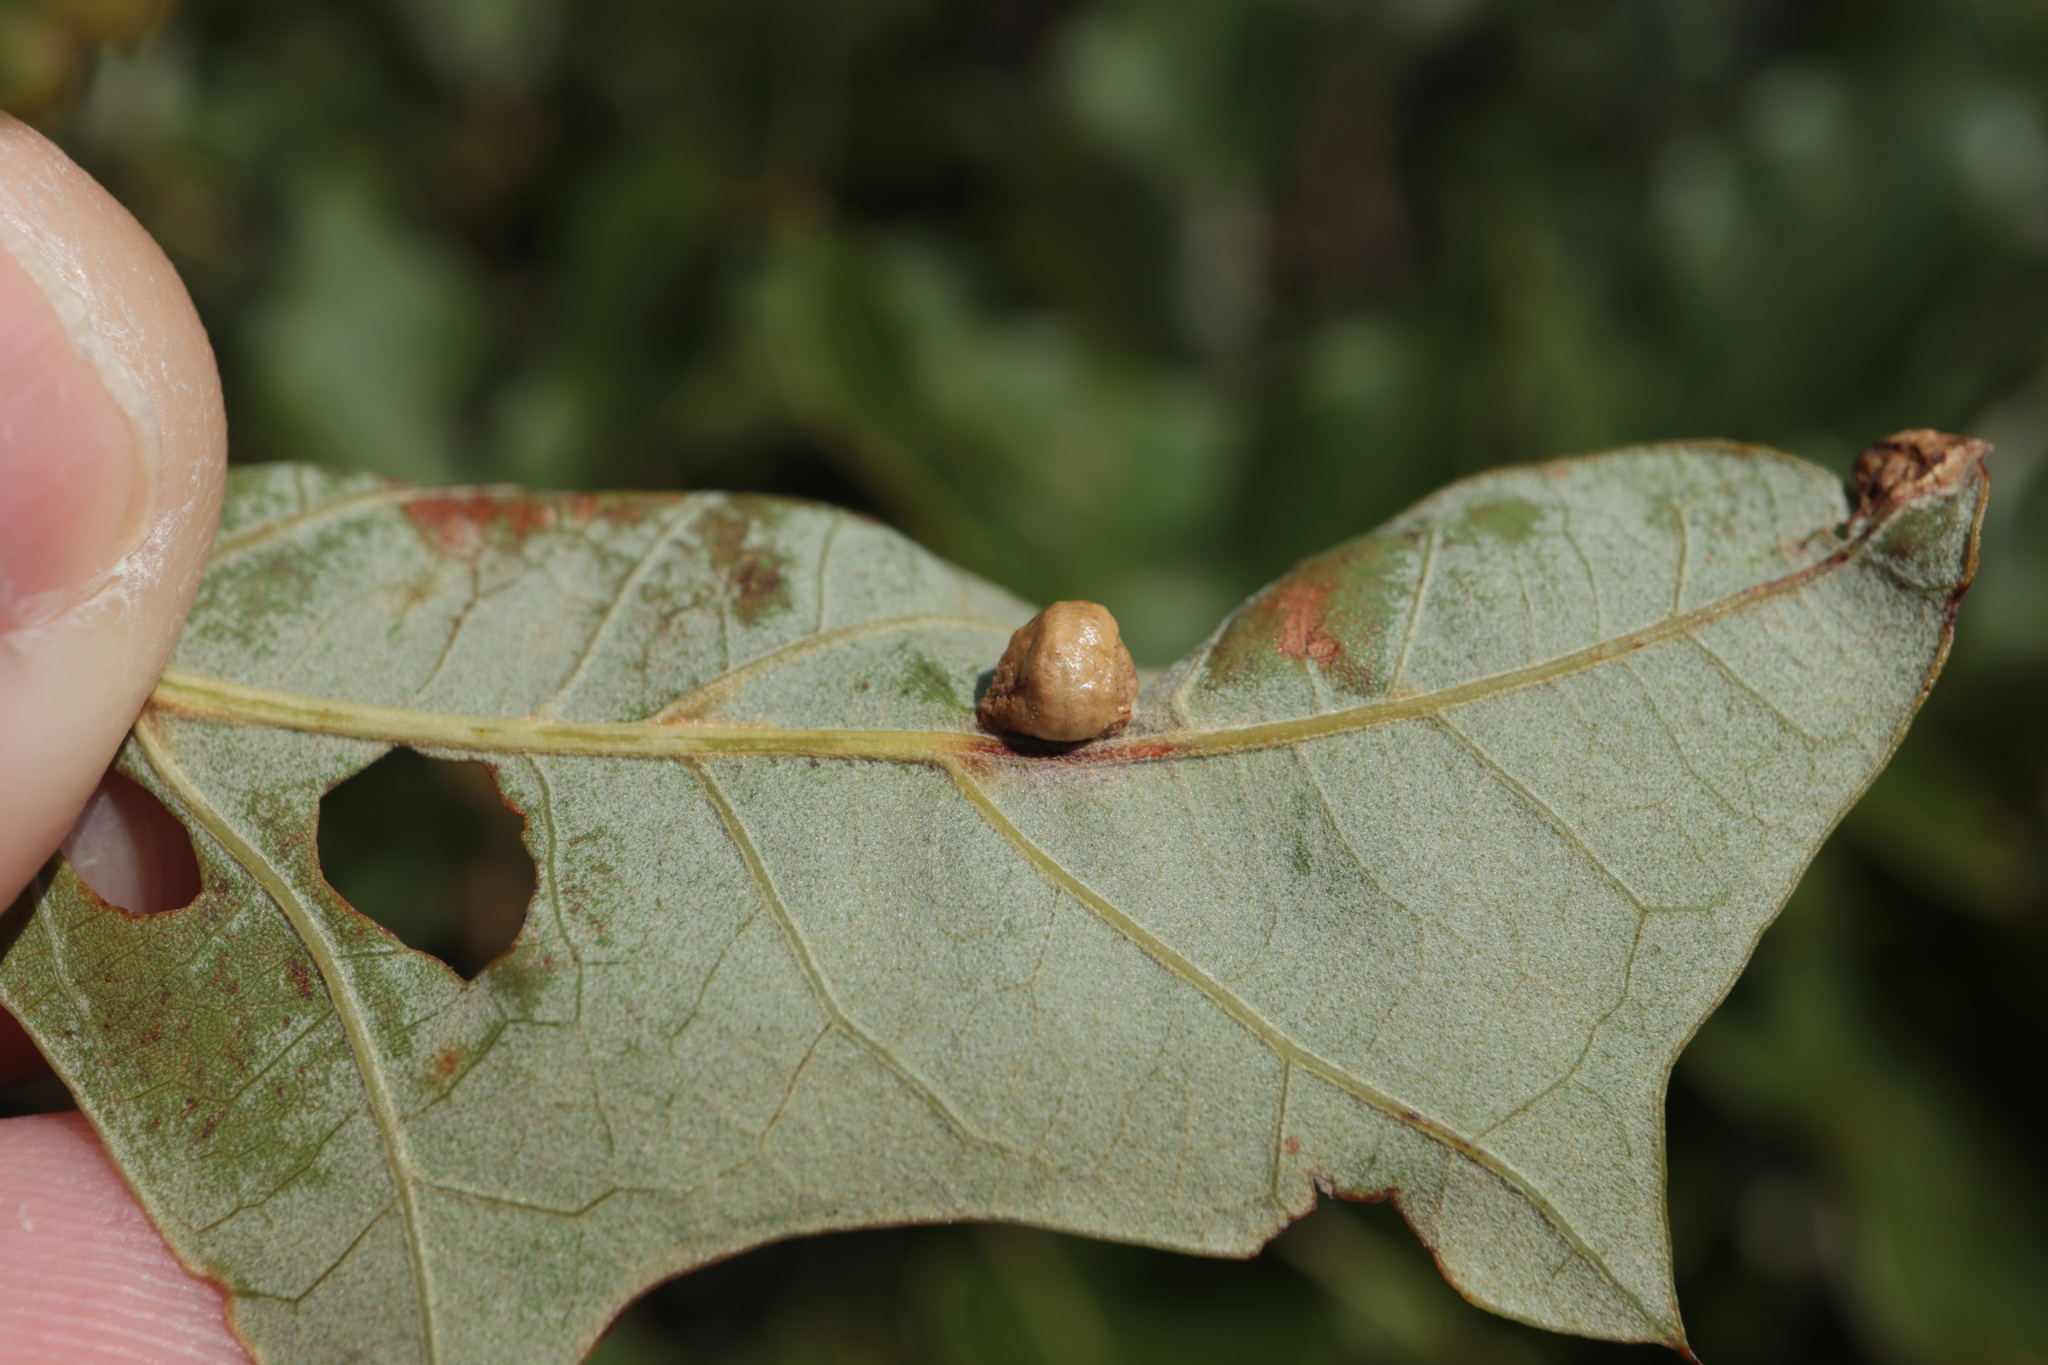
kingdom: Animalia
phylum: Arthropoda
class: Insecta
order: Diptera
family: Cecidomyiidae
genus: Macrodiplosis
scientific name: Macrodiplosis majalis
